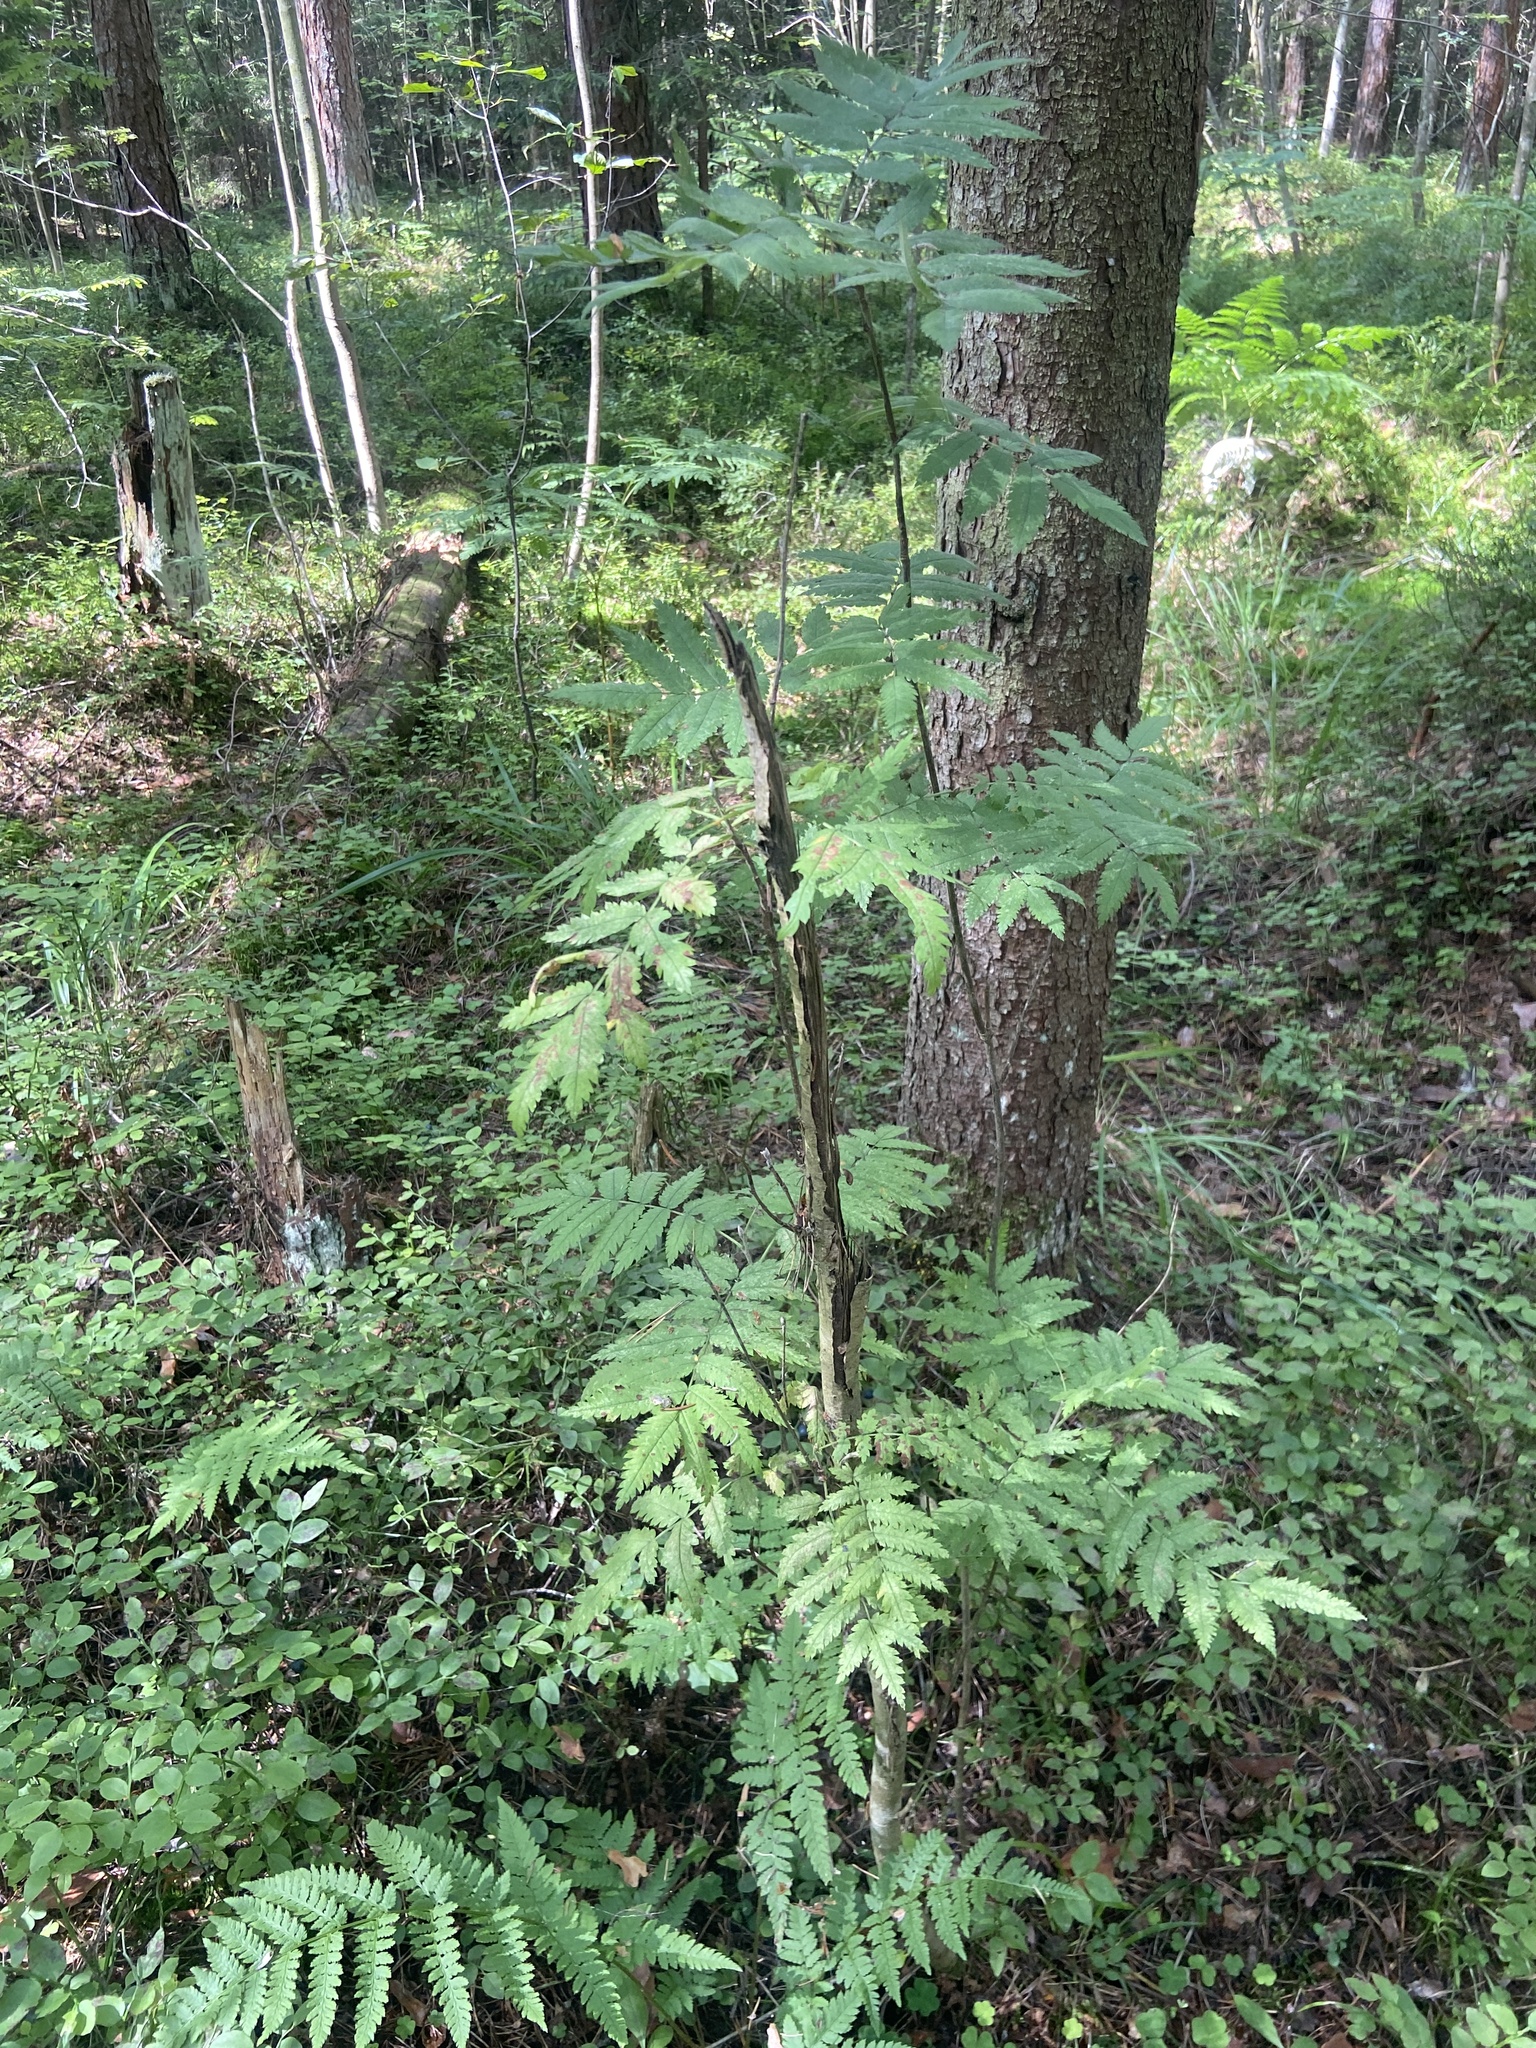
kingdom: Plantae
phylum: Tracheophyta
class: Magnoliopsida
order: Rosales
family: Rosaceae
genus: Sorbus
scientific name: Sorbus aucuparia
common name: Rowan
